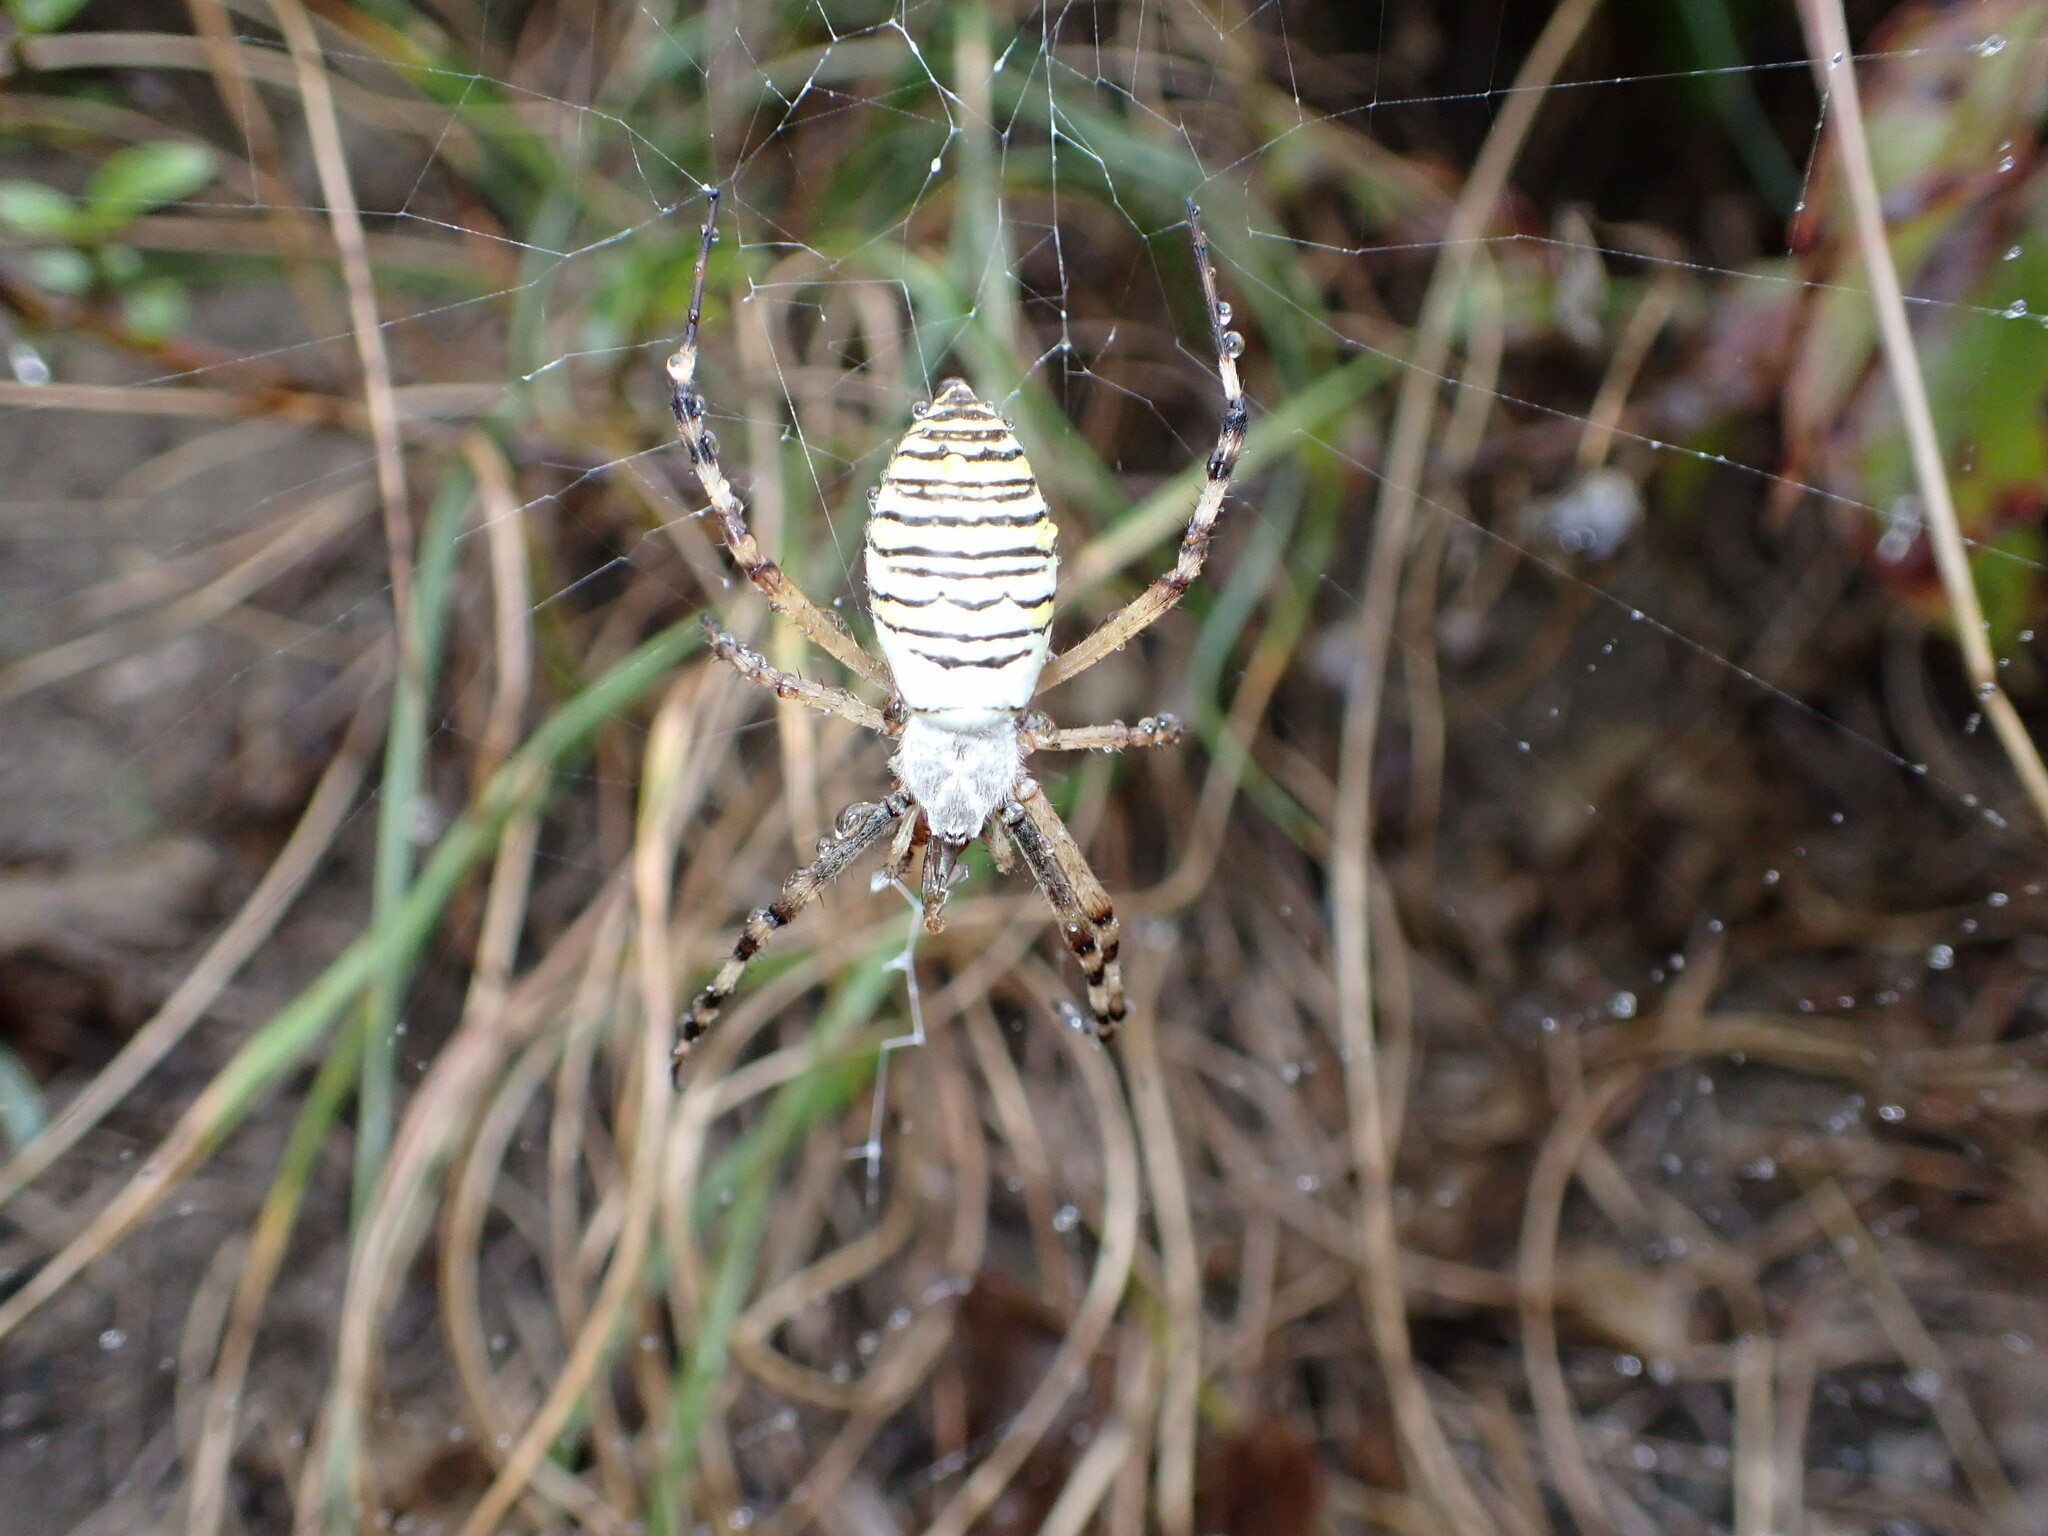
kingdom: Animalia
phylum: Arthropoda
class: Arachnida
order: Araneae
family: Araneidae
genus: Argiope
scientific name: Argiope bruennichi
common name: Wasp spider
